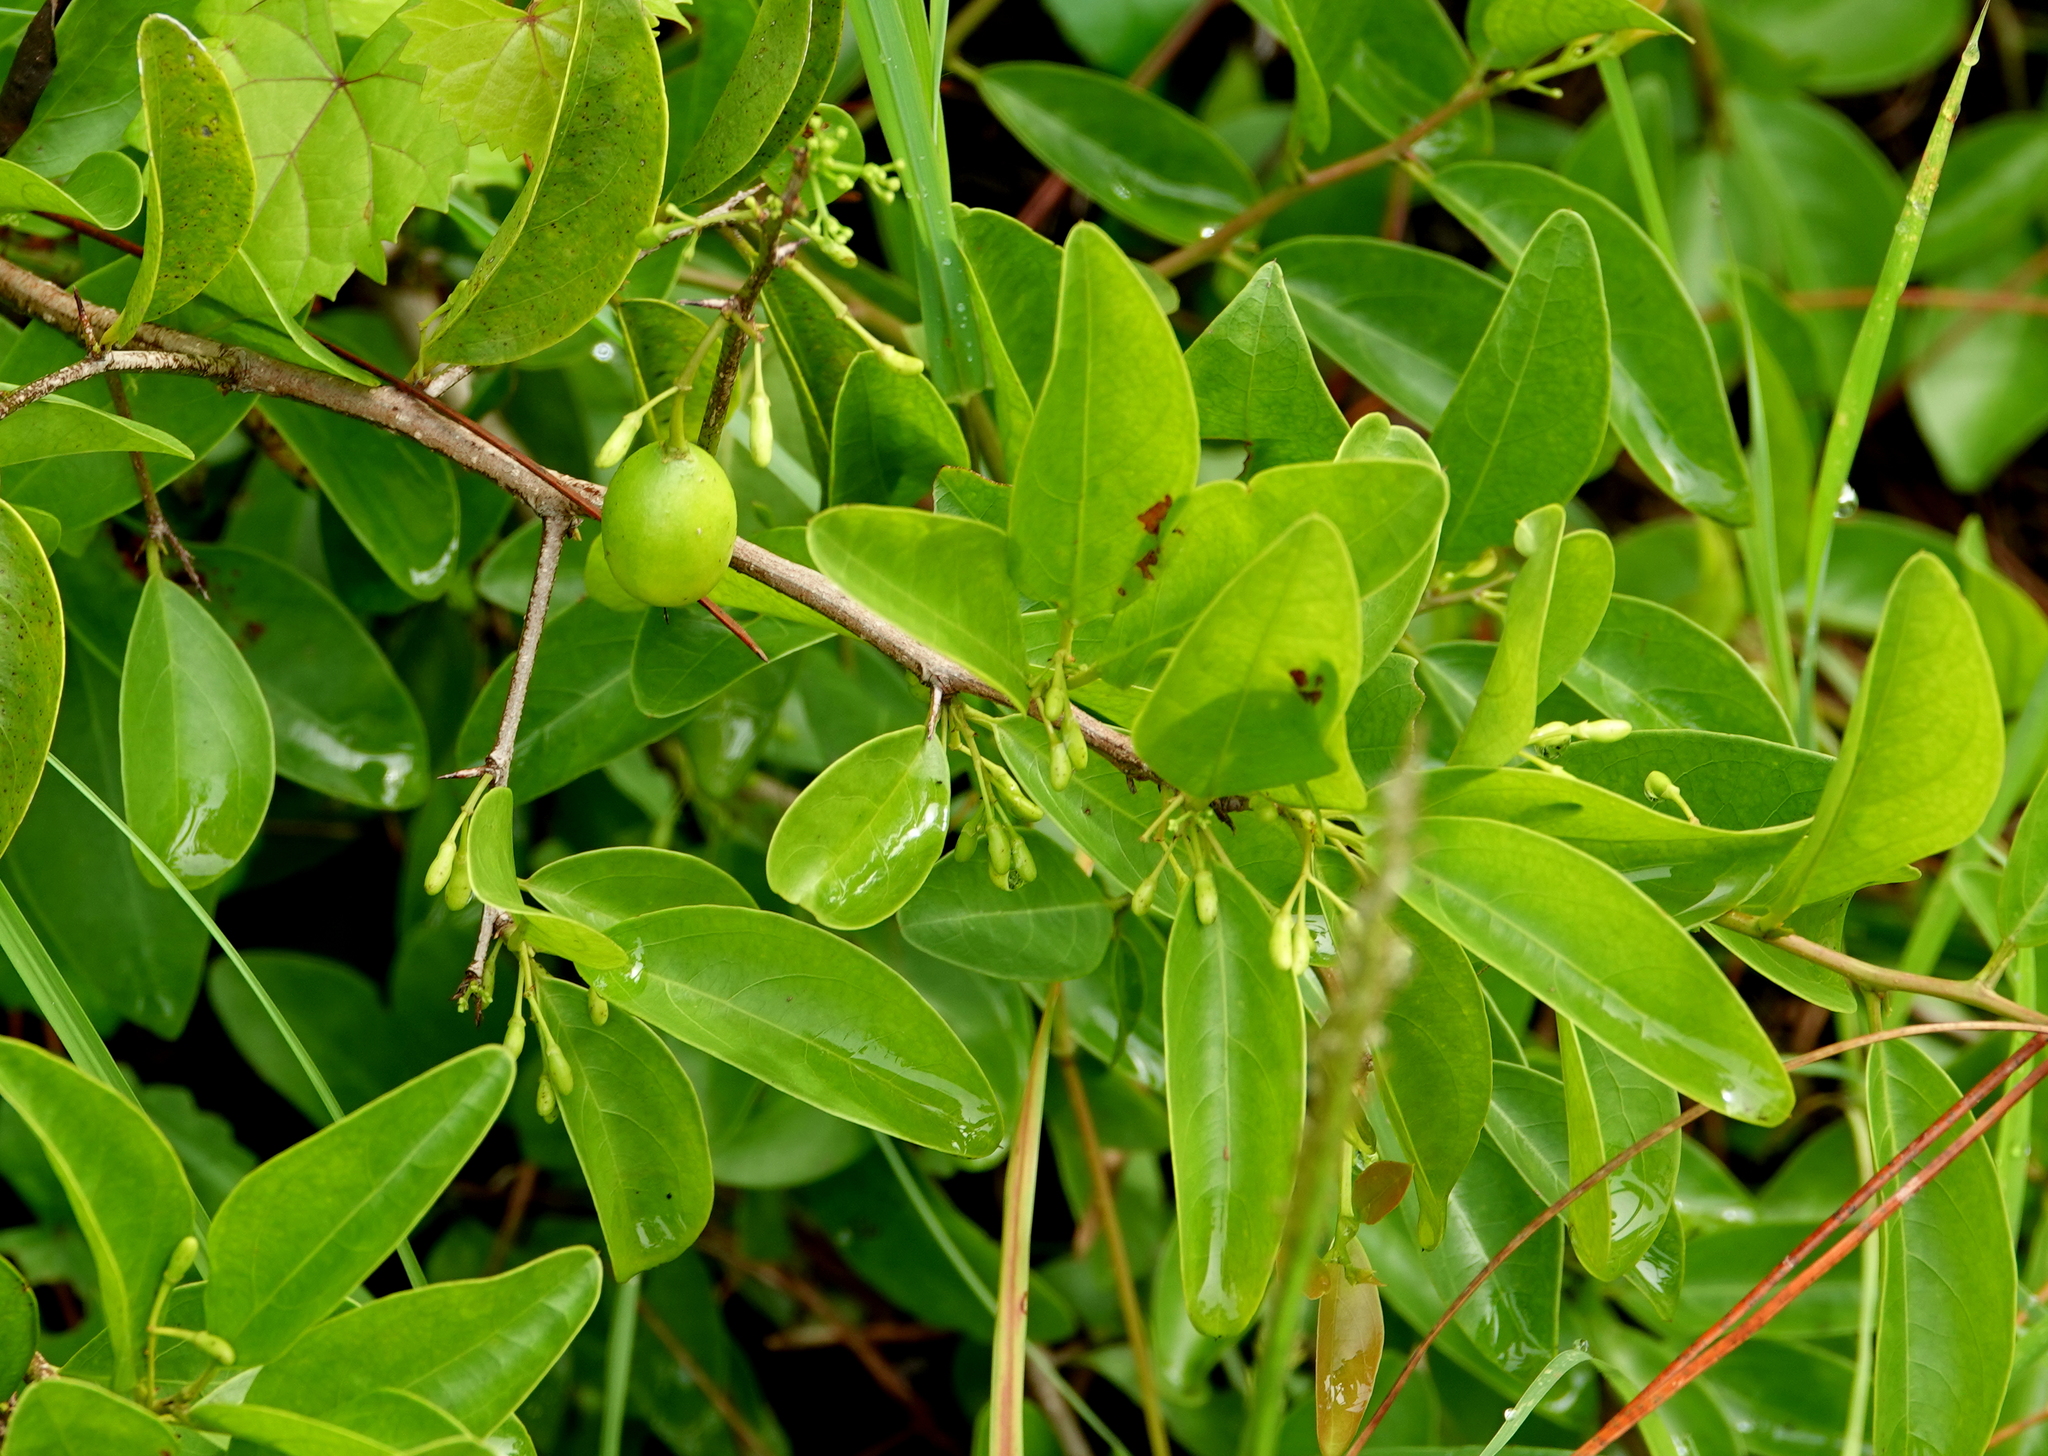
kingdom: Plantae
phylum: Tracheophyta
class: Magnoliopsida
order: Santalales
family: Ximeniaceae
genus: Ximenia
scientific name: Ximenia americana
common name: Tallowwood
